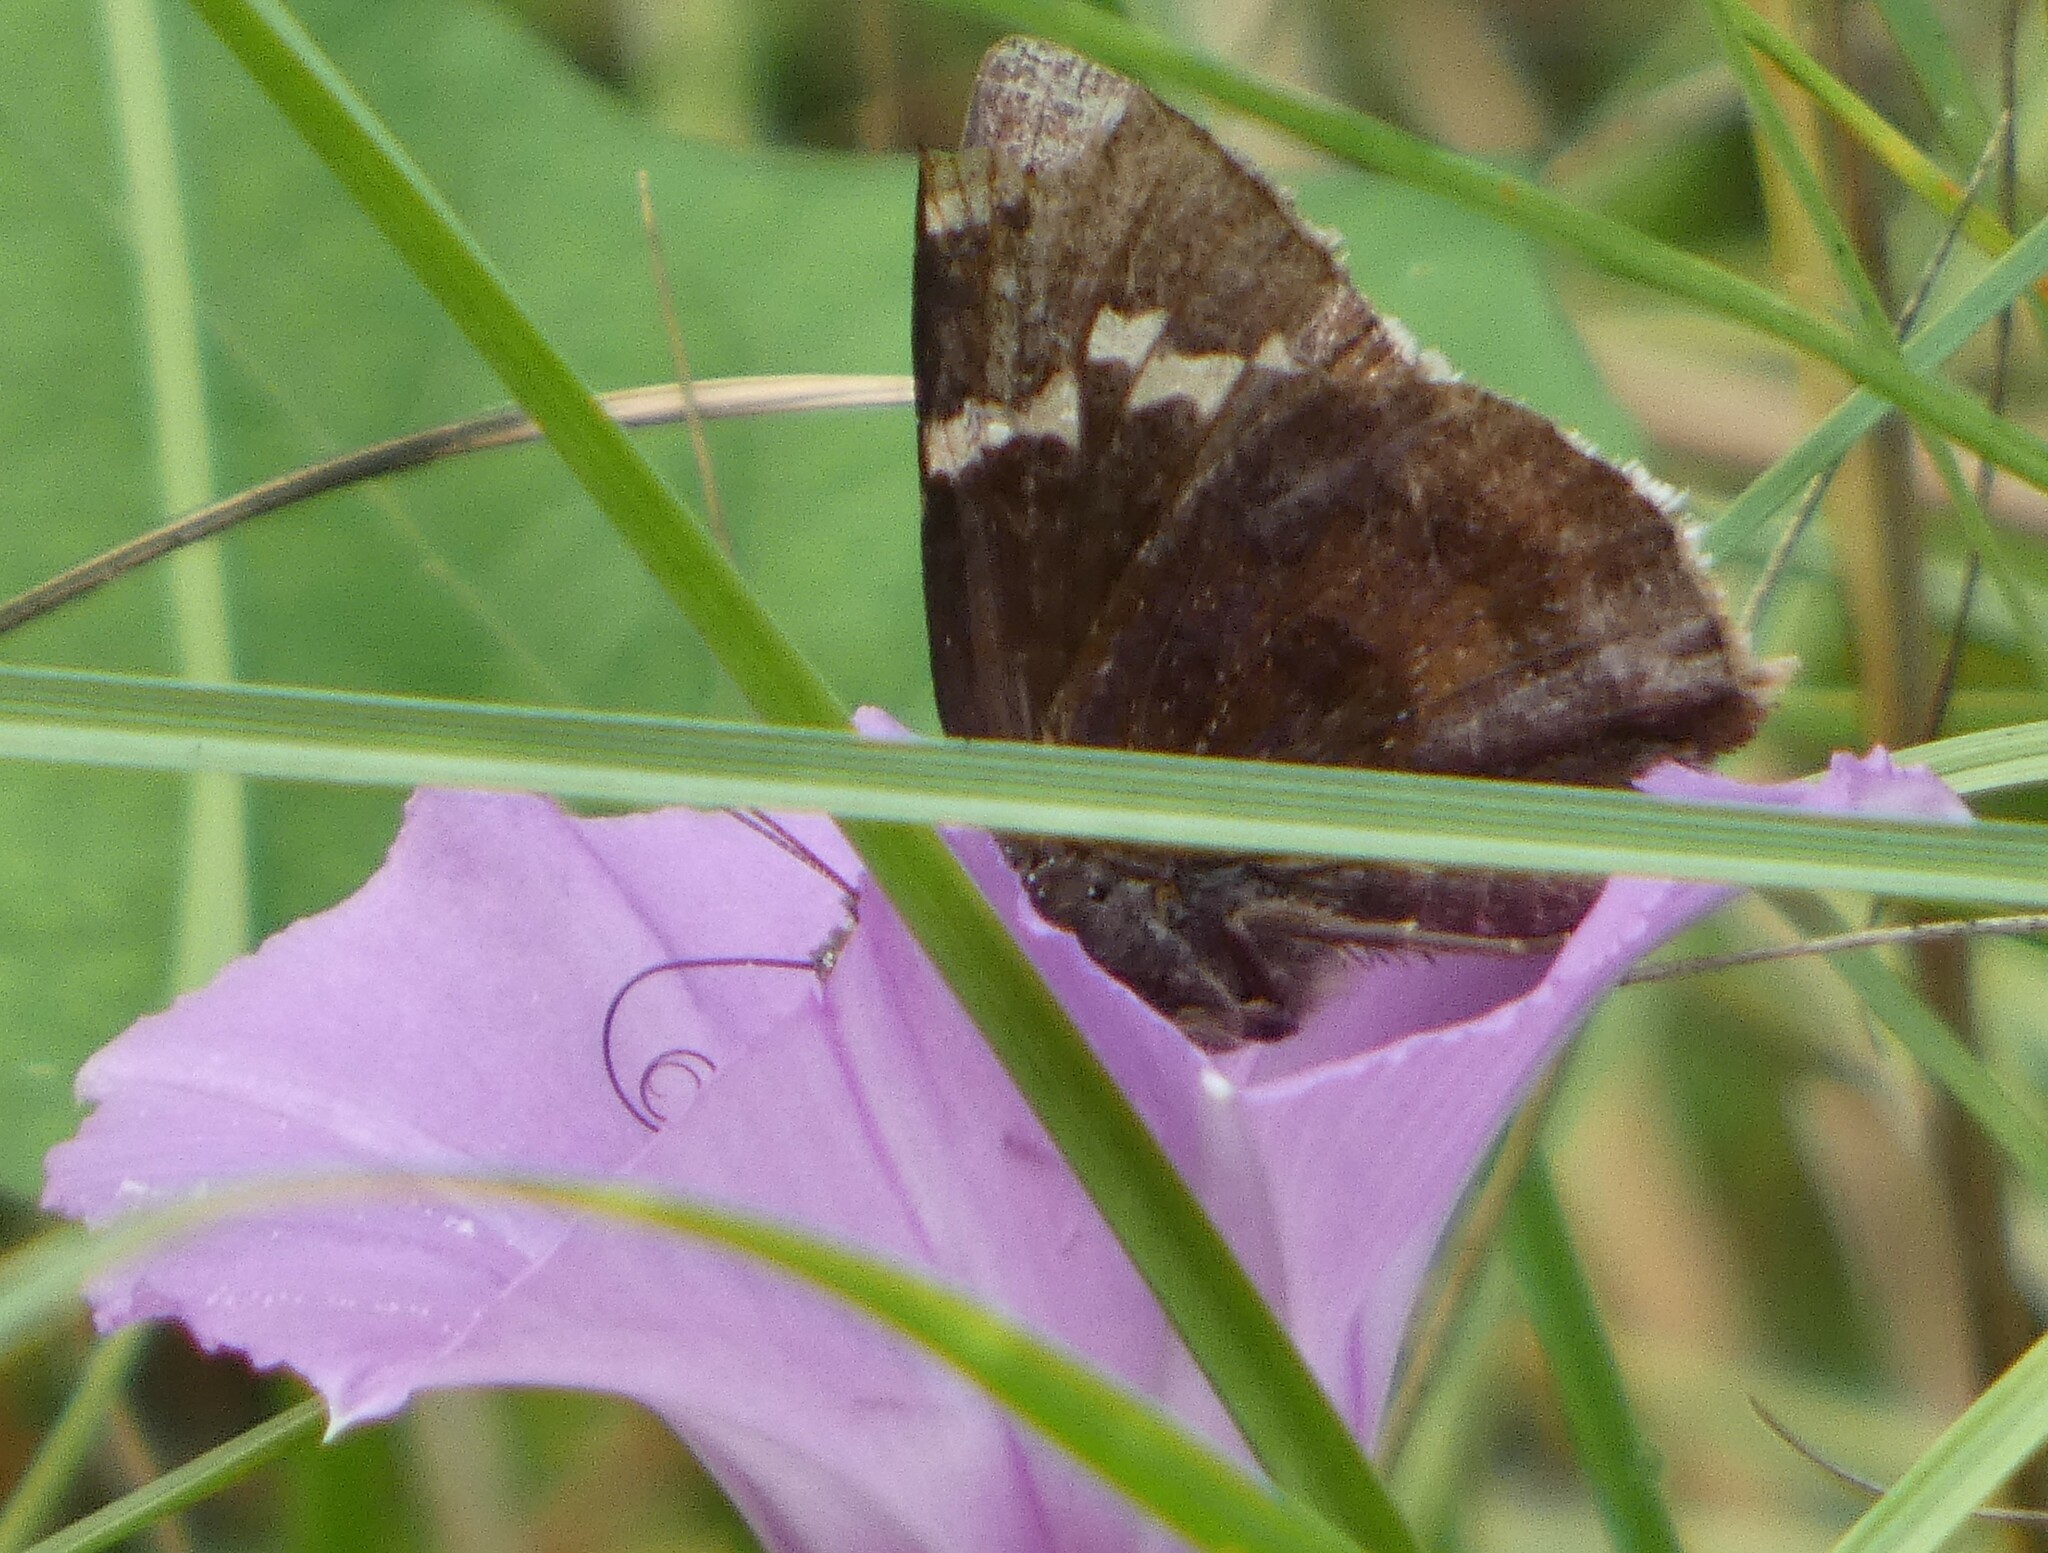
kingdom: Animalia
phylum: Arthropoda
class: Insecta
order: Lepidoptera
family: Hesperiidae
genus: Thorybes
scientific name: Thorybes daunus
